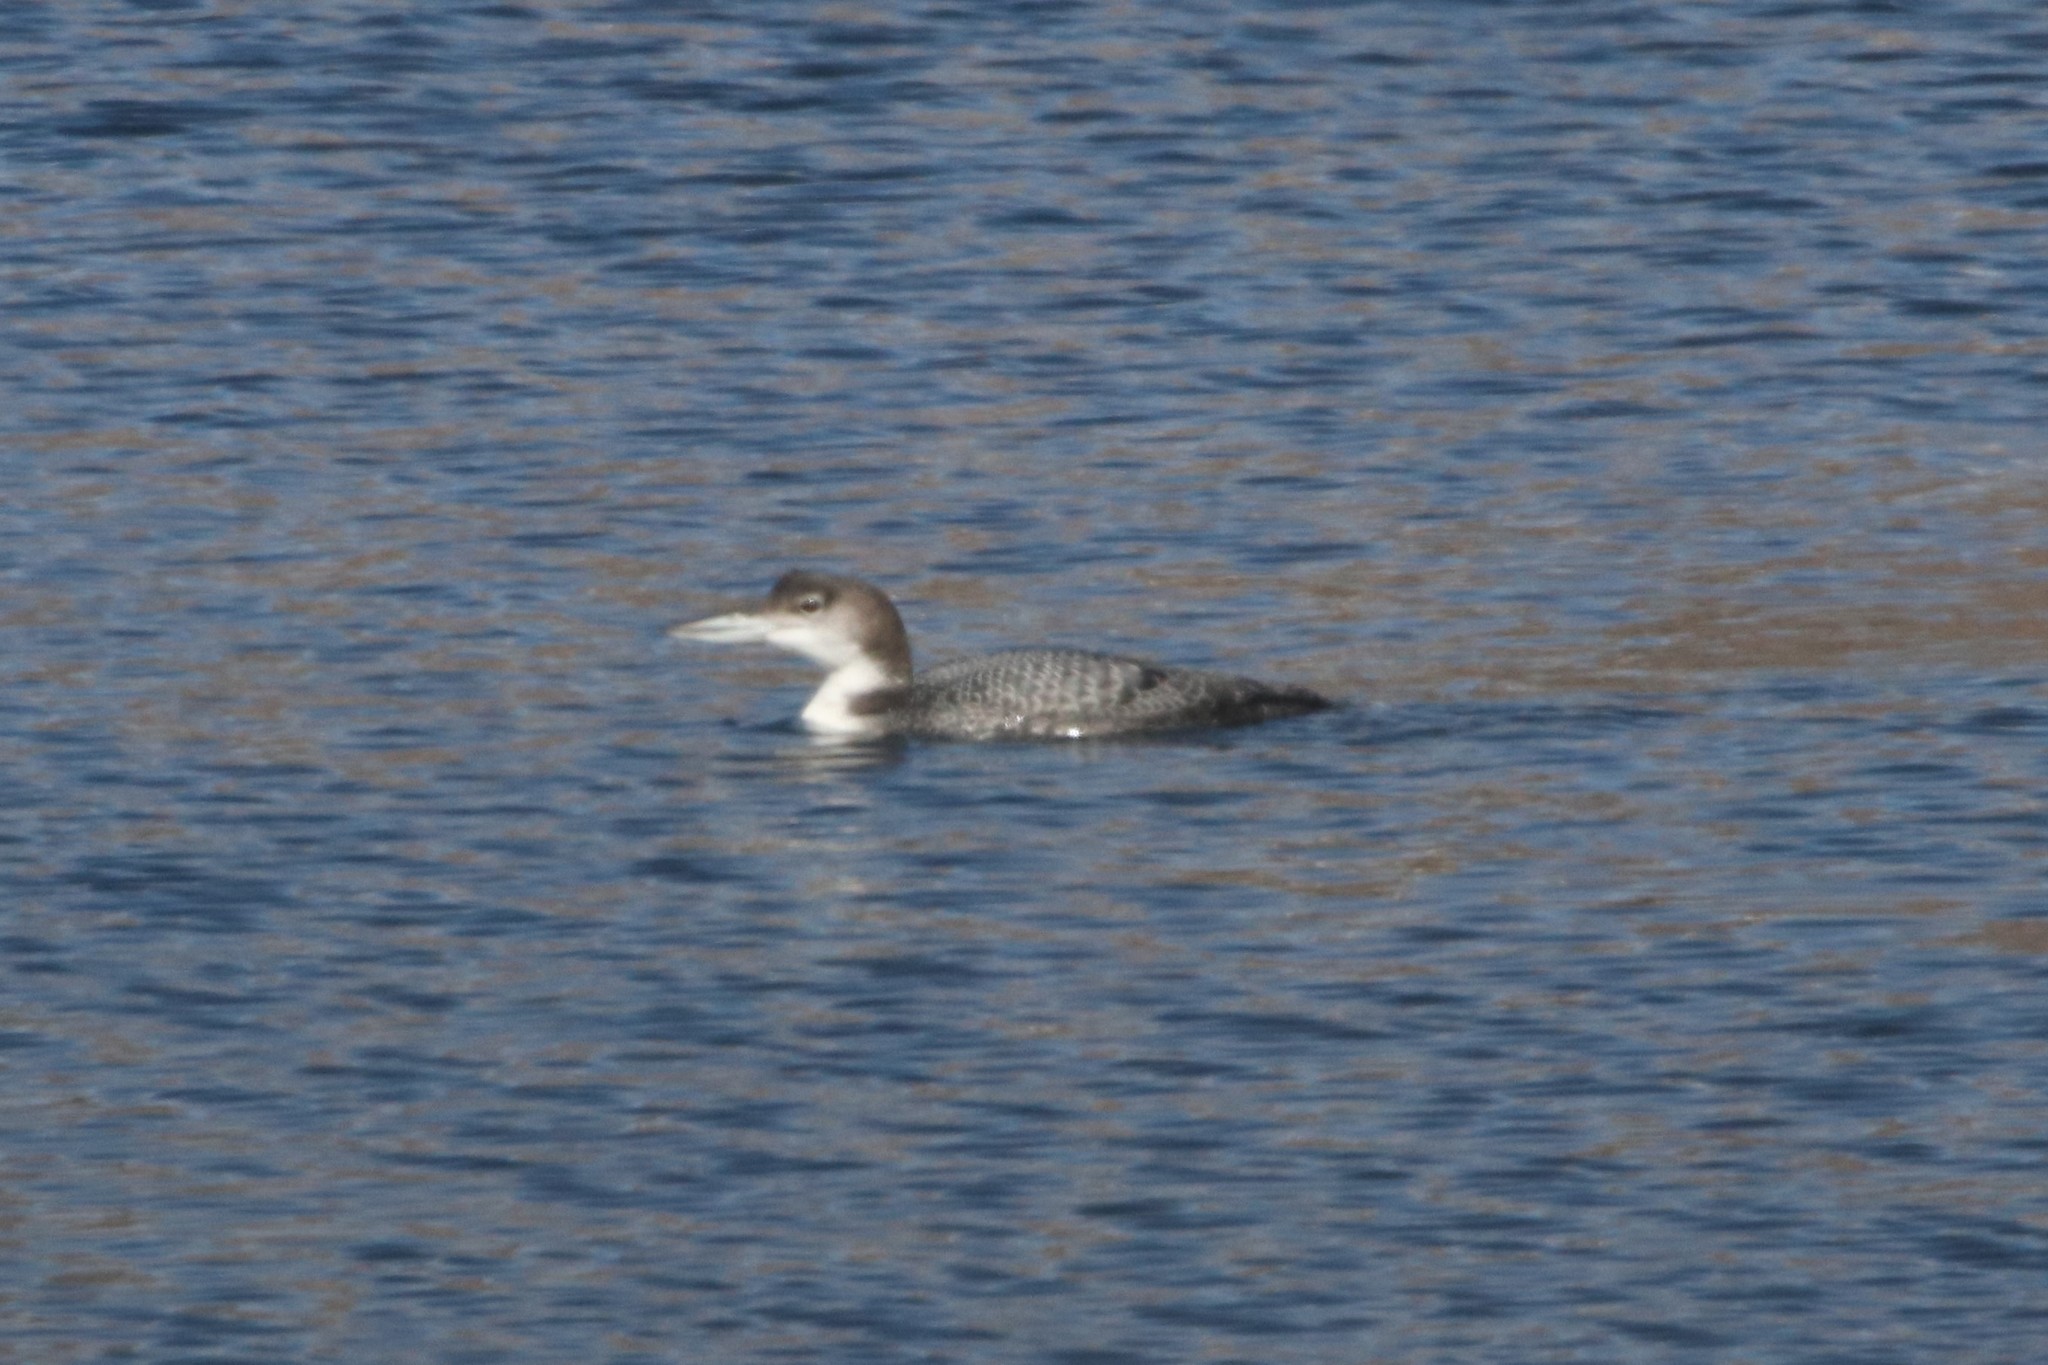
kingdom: Animalia
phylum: Chordata
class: Aves
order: Gaviiformes
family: Gaviidae
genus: Gavia
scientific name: Gavia immer
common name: Common loon
